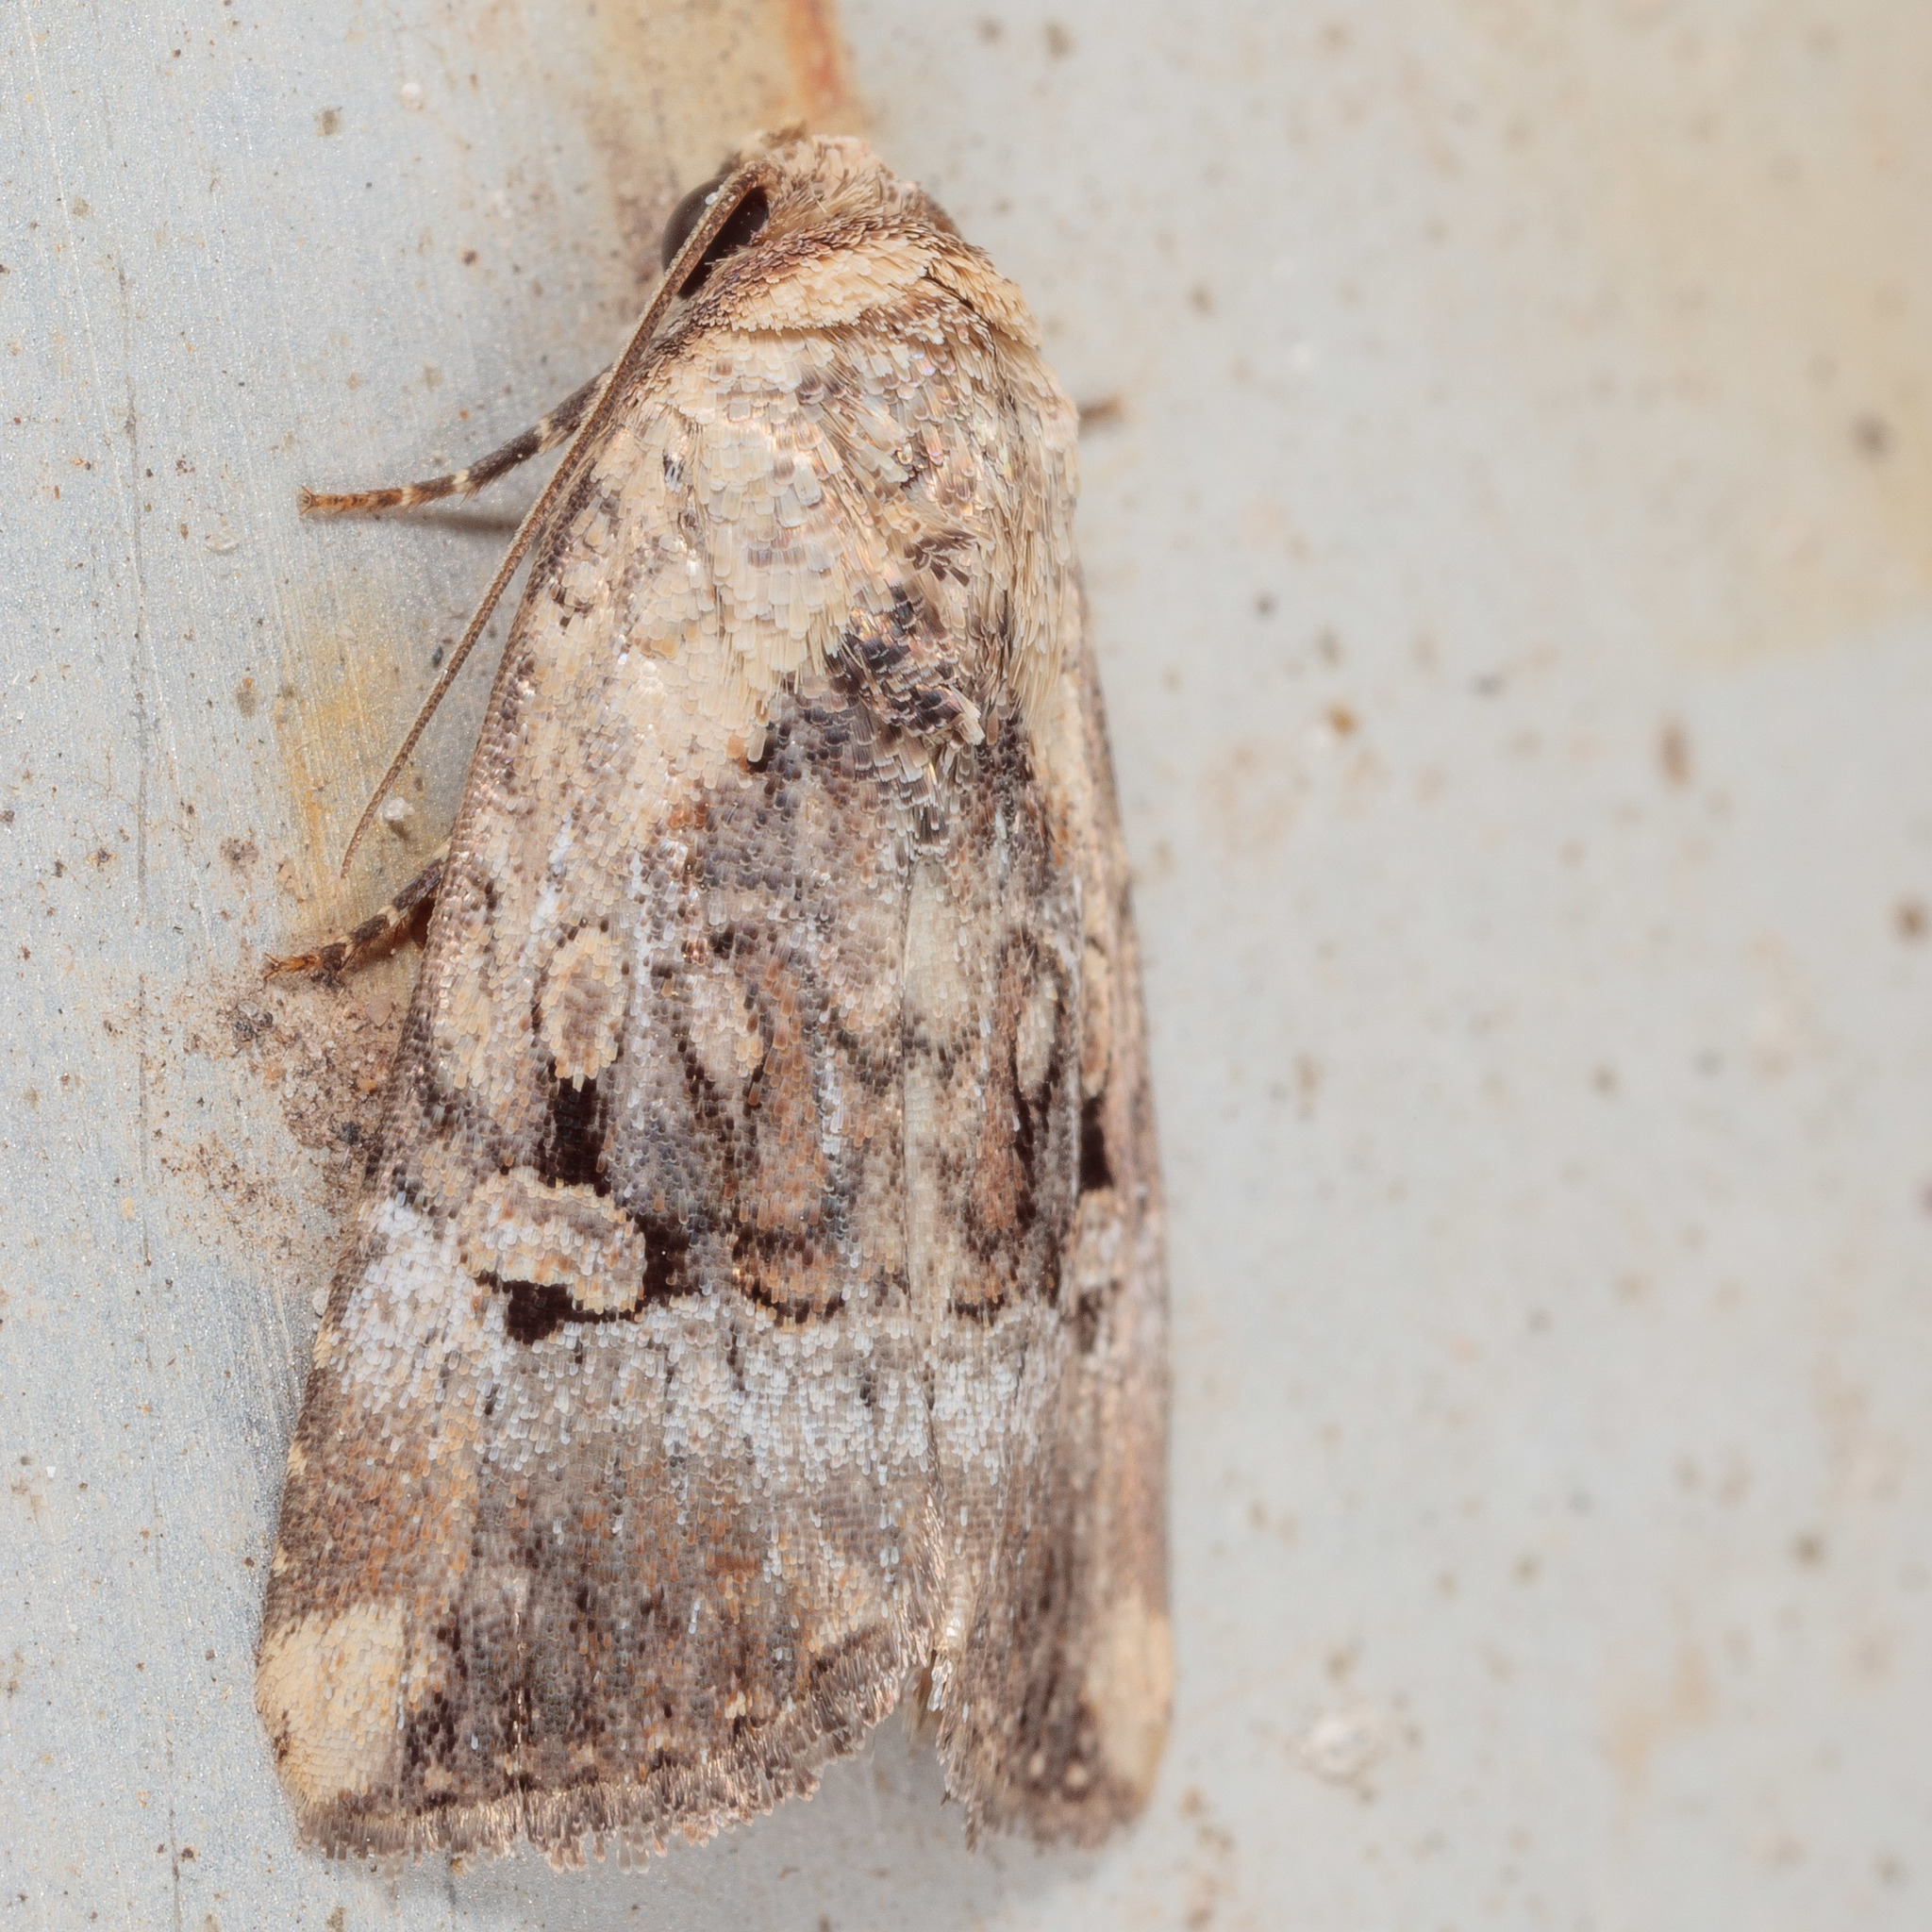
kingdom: Animalia
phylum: Arthropoda
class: Insecta
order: Lepidoptera
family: Noctuidae
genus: Elaphria
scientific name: Elaphria chalcedonia
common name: Chalcedony midget
